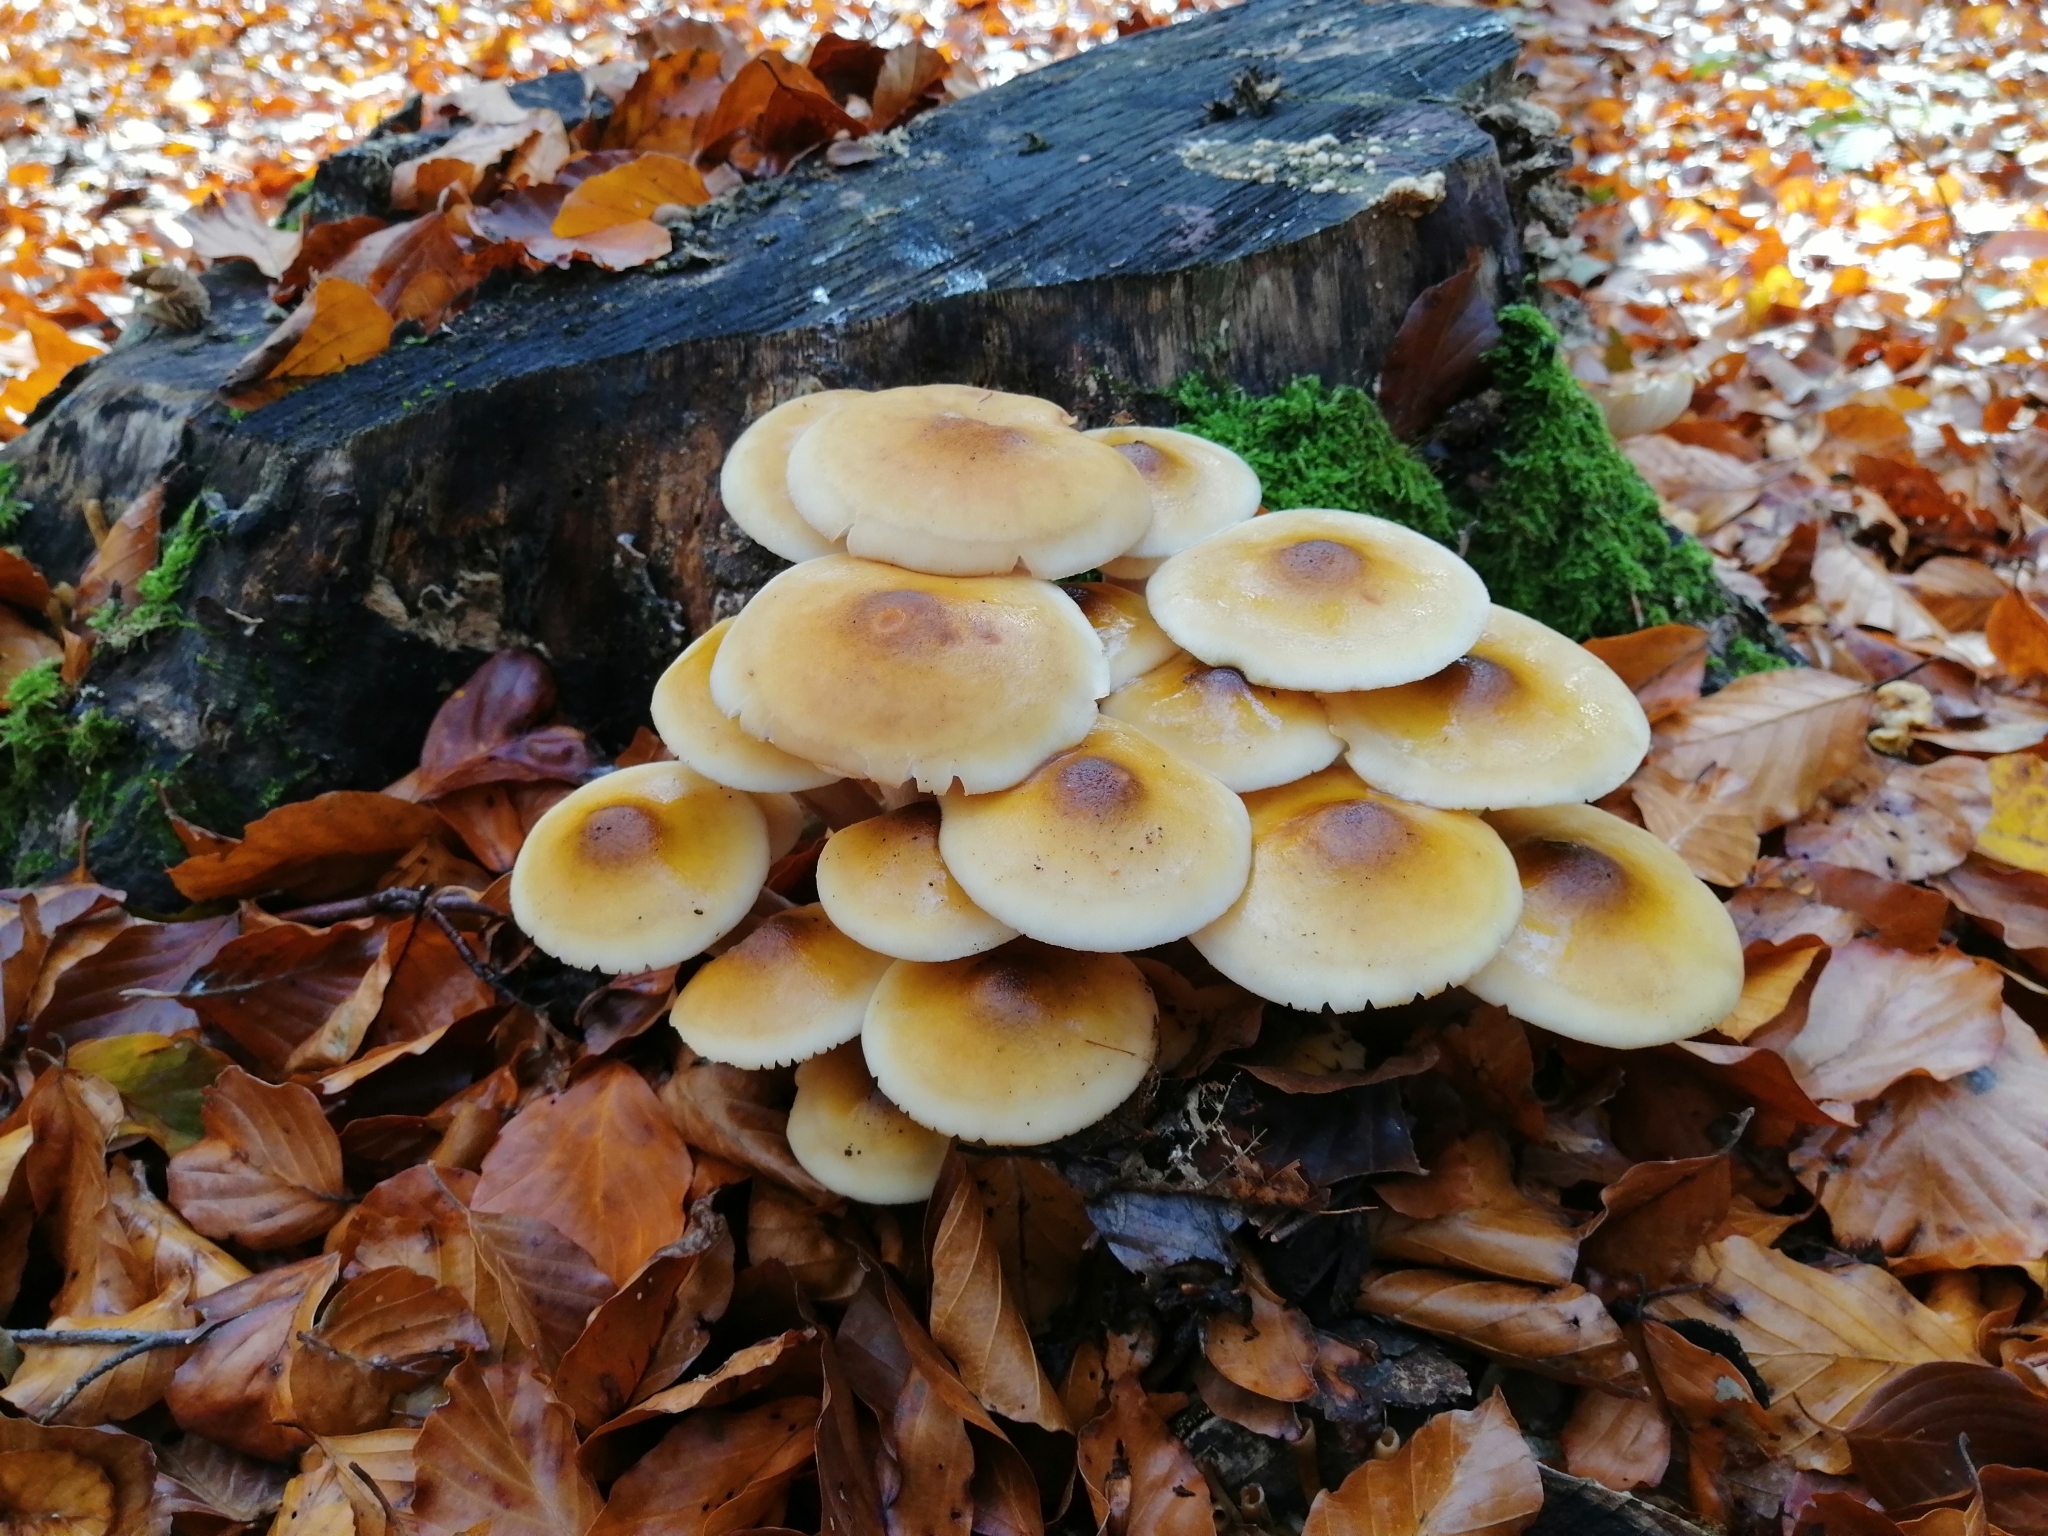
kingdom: Fungi
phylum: Basidiomycota
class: Agaricomycetes
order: Agaricales
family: Physalacriaceae
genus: Armillaria
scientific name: Armillaria mellea
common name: Honey fungus
